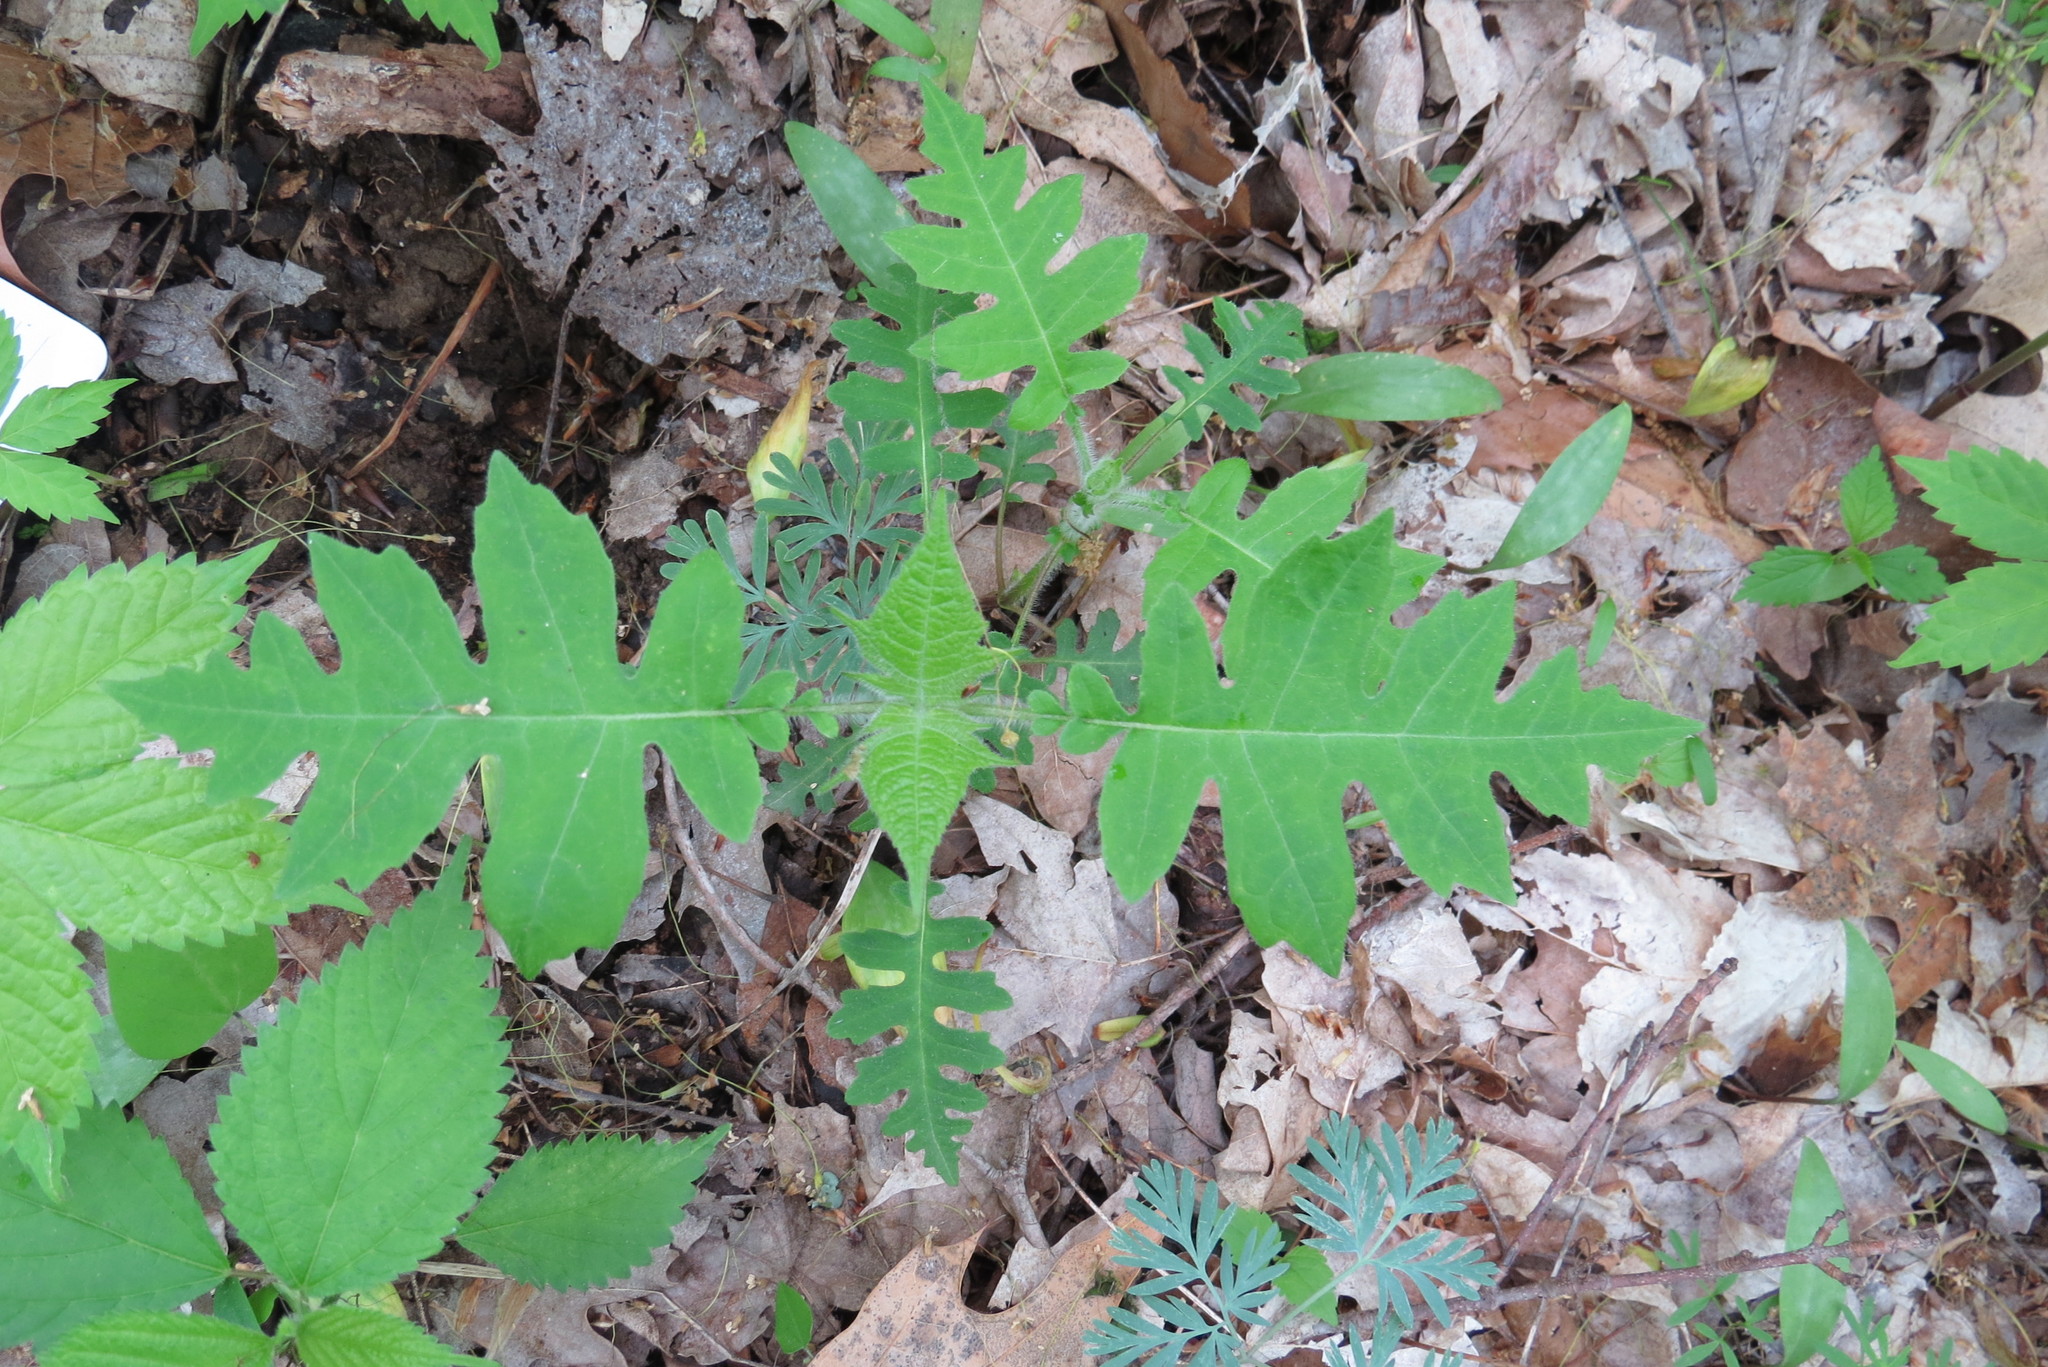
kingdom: Plantae
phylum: Tracheophyta
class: Magnoliopsida
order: Asterales
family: Asteraceae
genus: Polymnia
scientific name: Polymnia canadensis
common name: Pale-flowered leafcup
